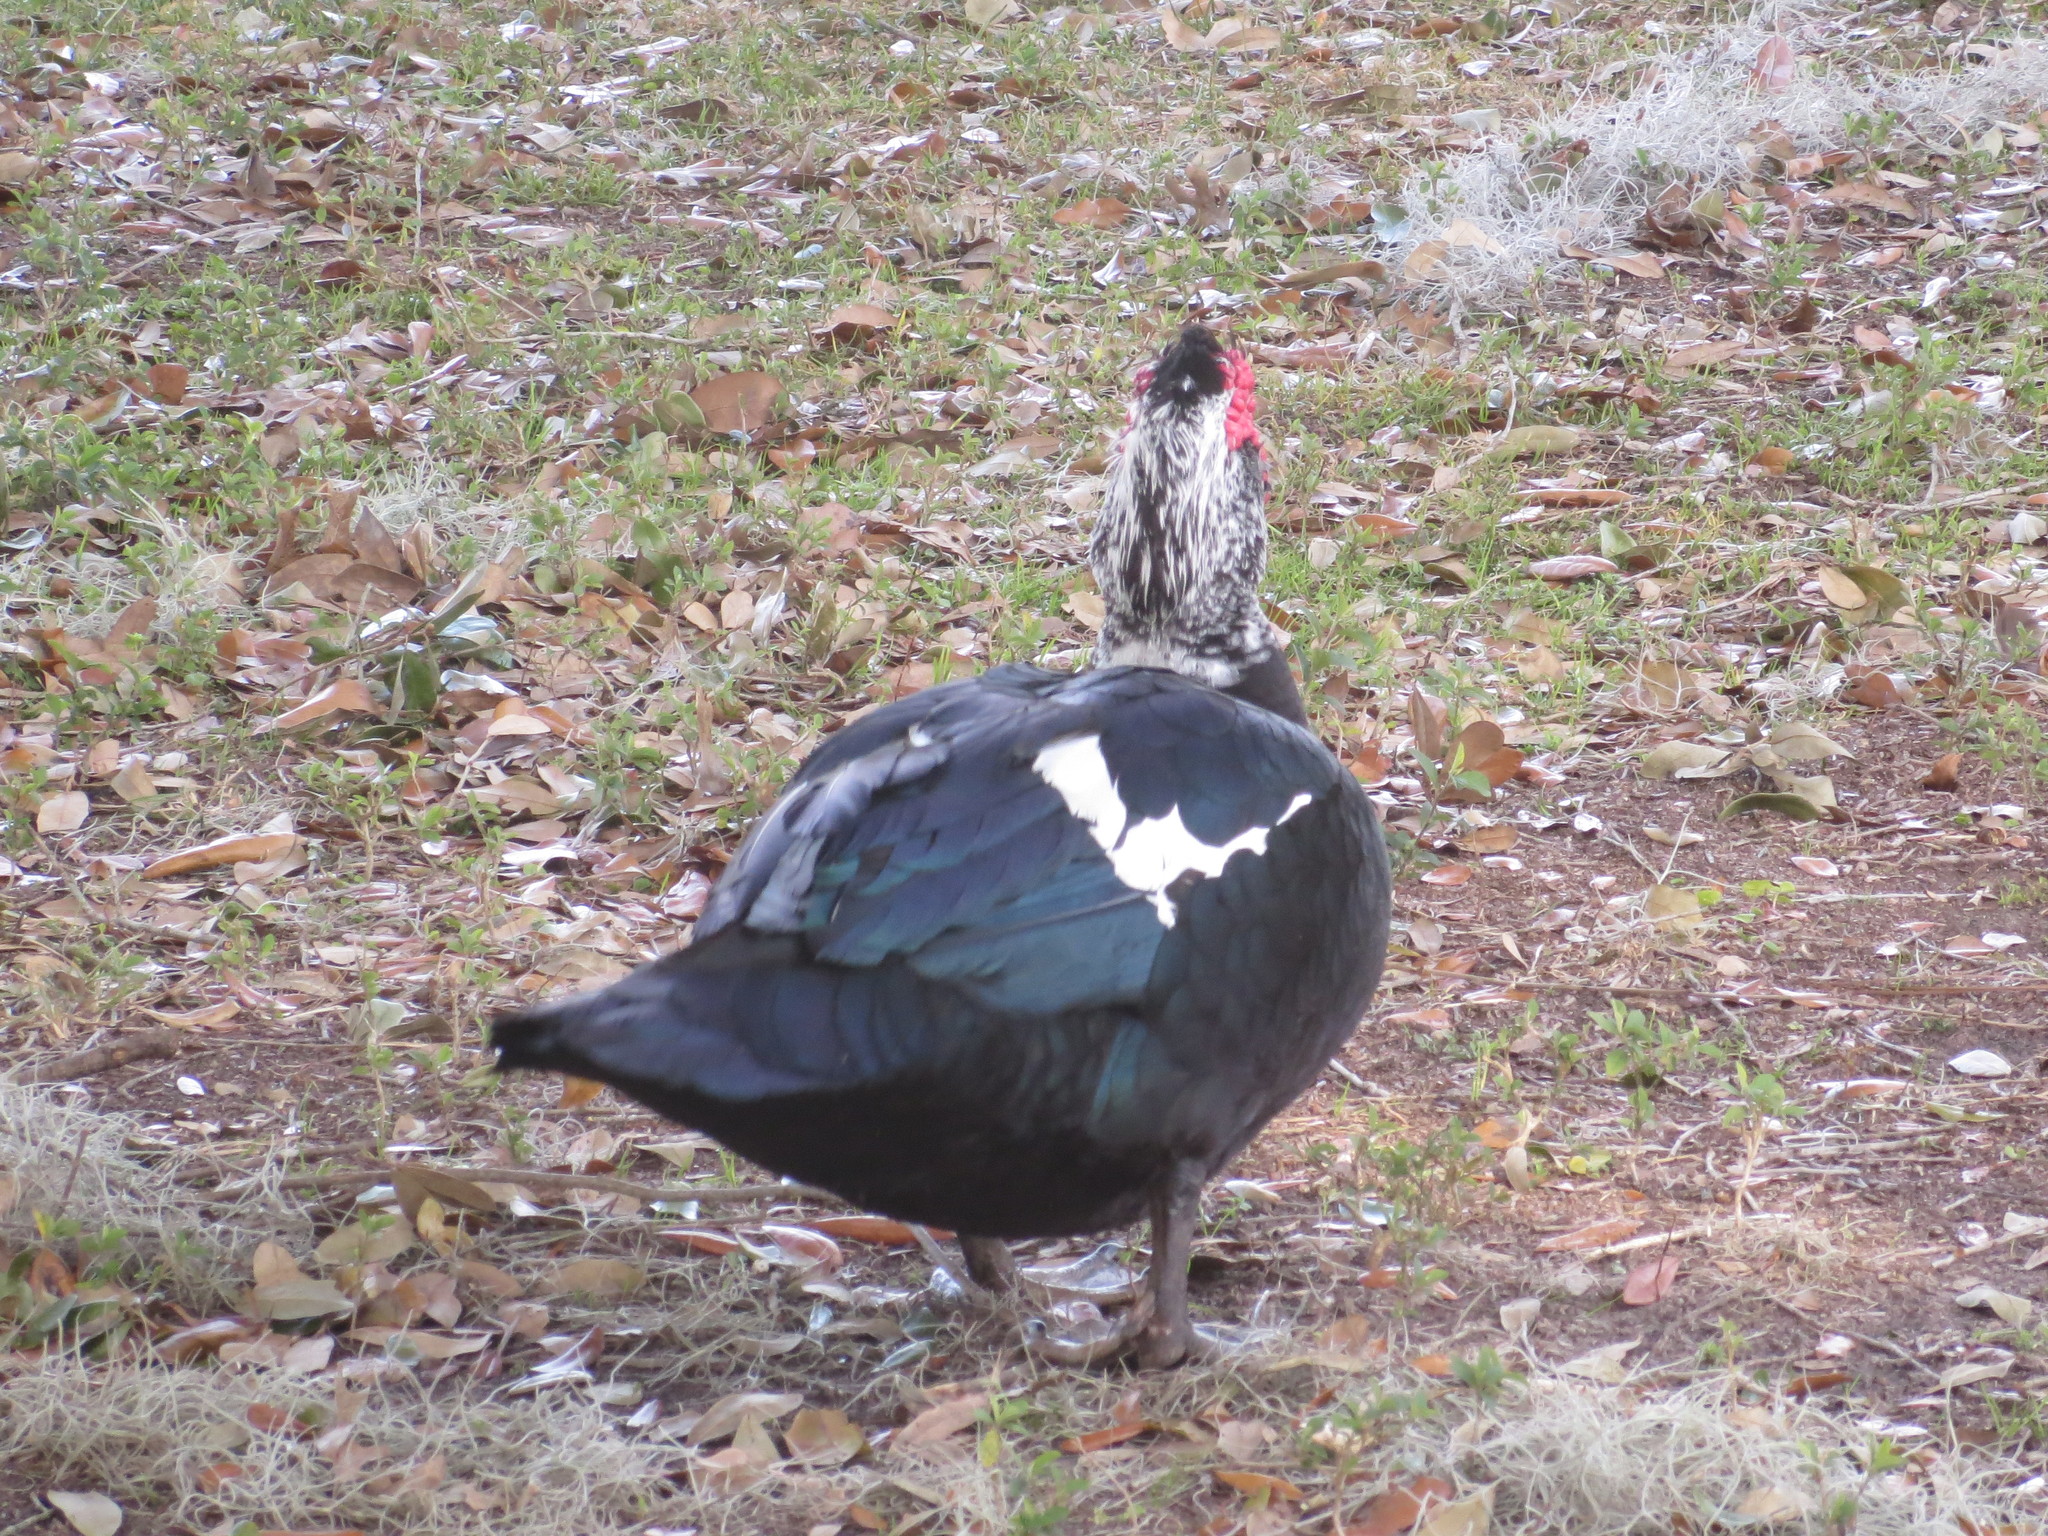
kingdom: Animalia
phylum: Chordata
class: Aves
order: Anseriformes
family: Anatidae
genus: Cairina
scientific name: Cairina moschata
